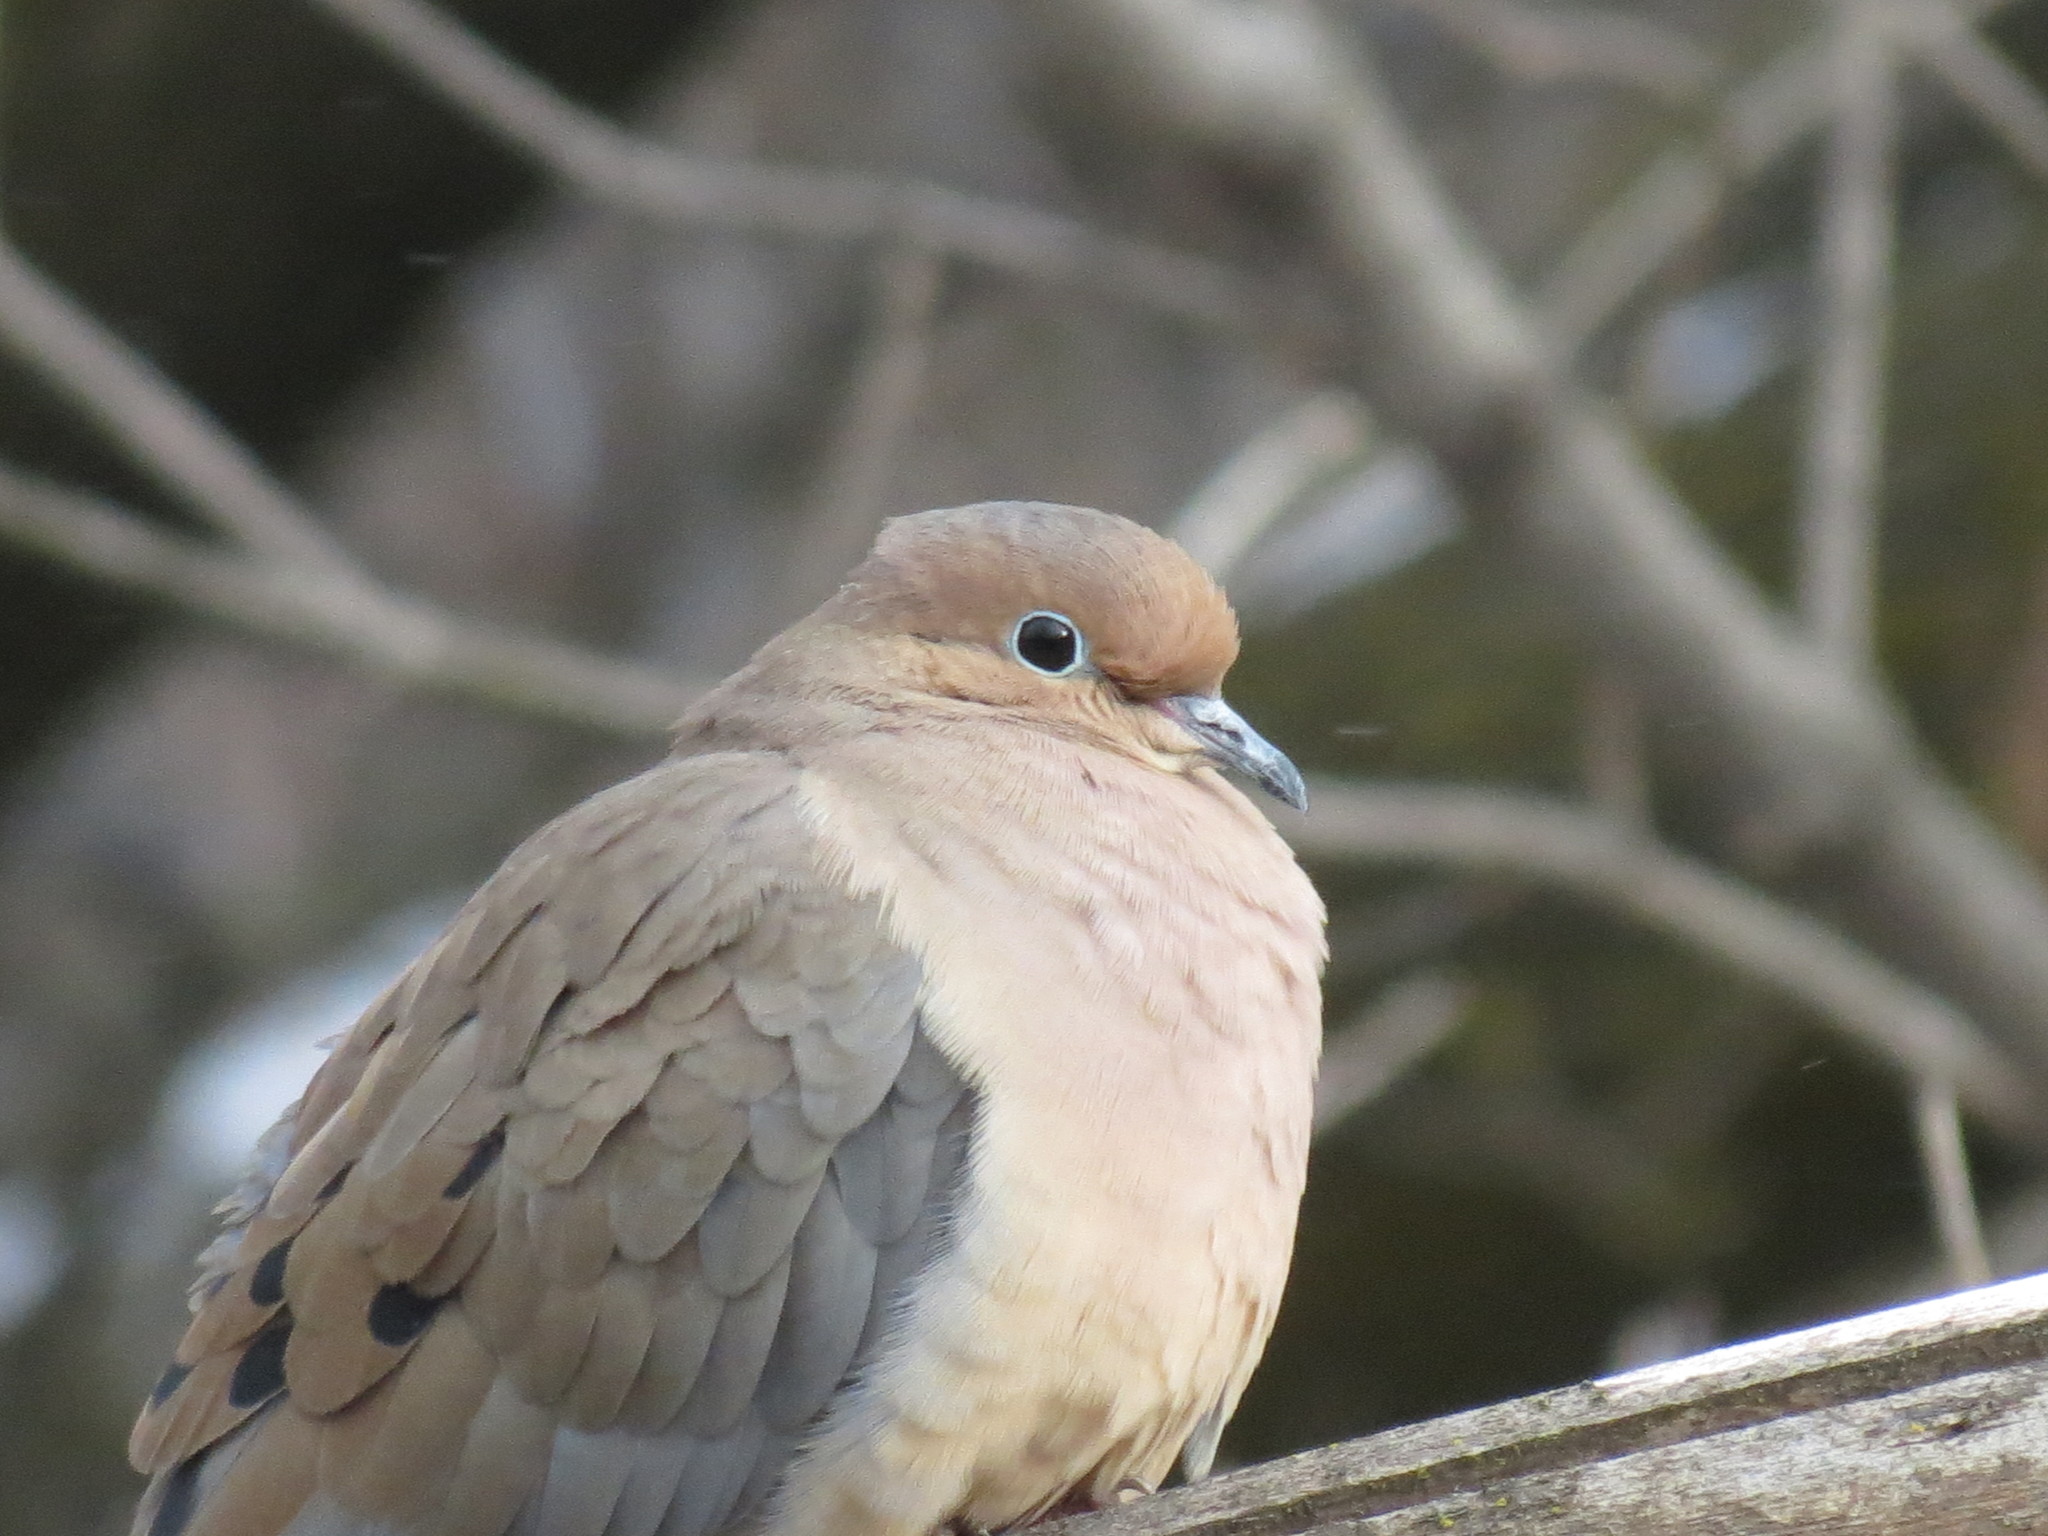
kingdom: Animalia
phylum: Chordata
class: Aves
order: Columbiformes
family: Columbidae
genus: Zenaida
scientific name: Zenaida macroura
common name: Mourning dove
